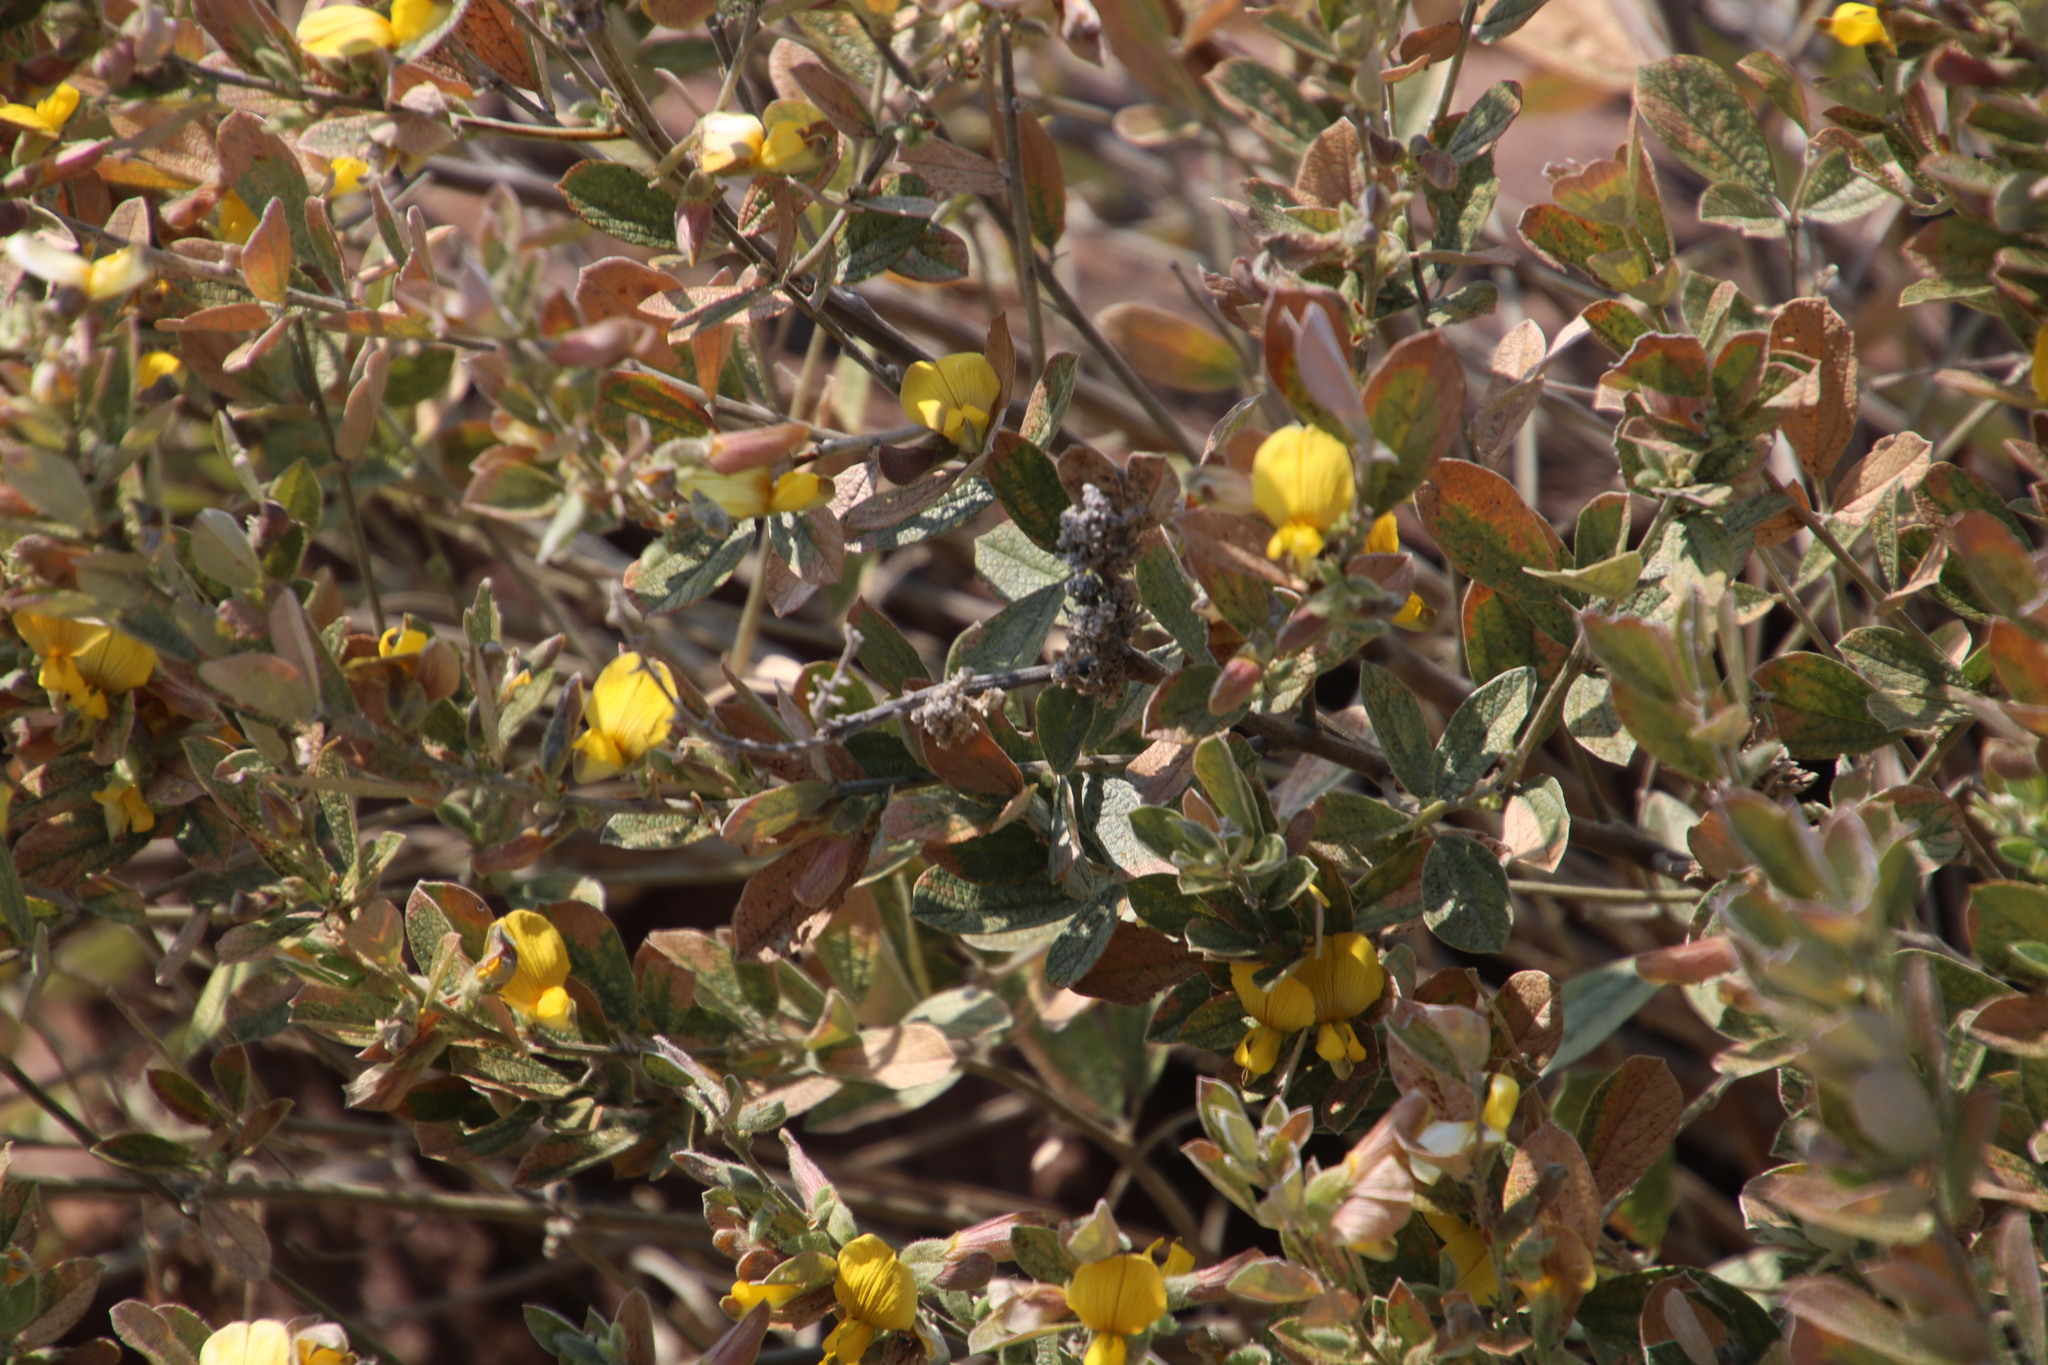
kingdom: Plantae
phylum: Tracheophyta
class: Magnoliopsida
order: Fabales
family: Fabaceae
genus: Rhynchosia
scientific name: Rhynchosia nitens
